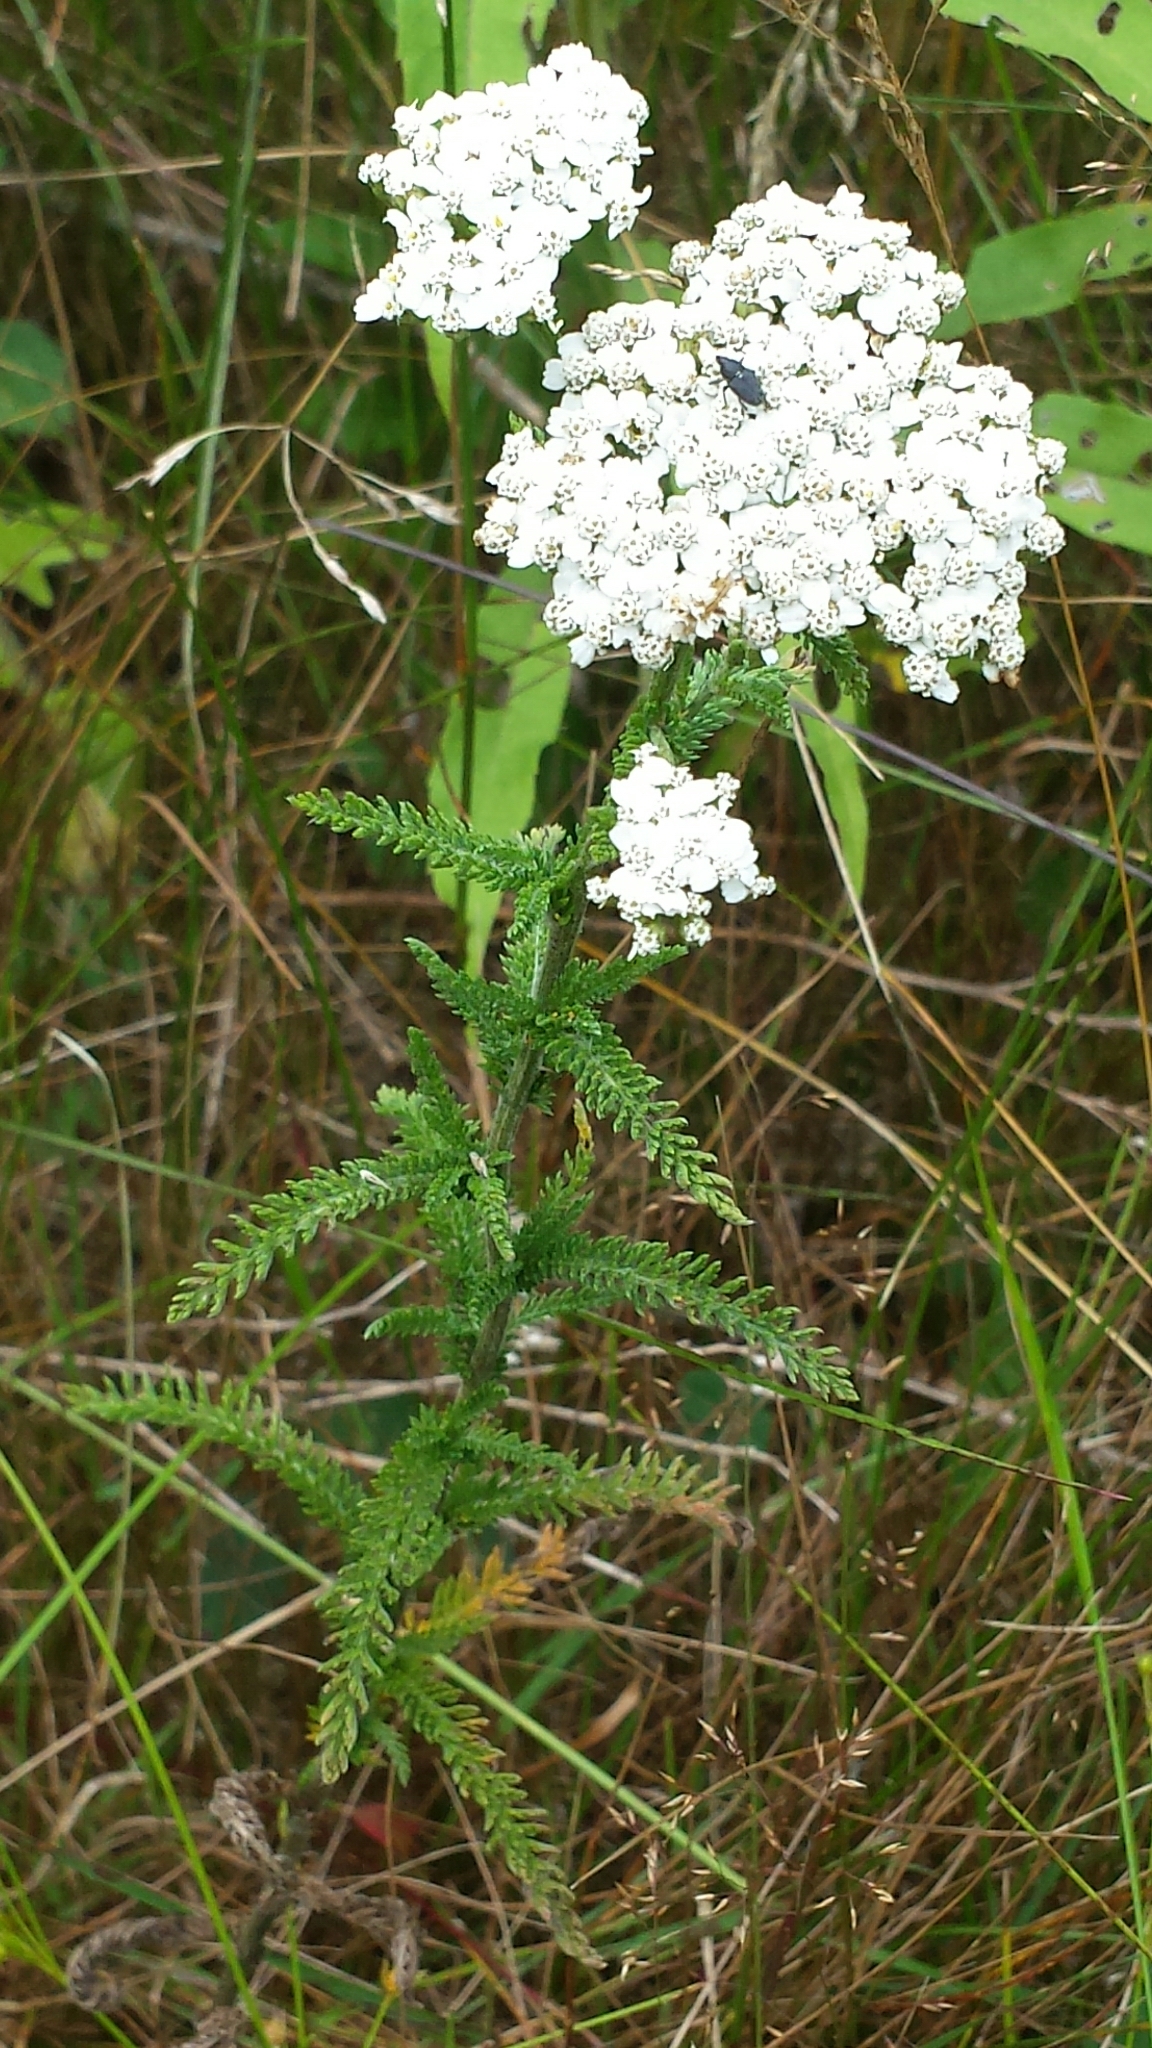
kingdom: Plantae
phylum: Tracheophyta
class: Magnoliopsida
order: Asterales
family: Asteraceae
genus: Achillea
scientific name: Achillea millefolium
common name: Yarrow
